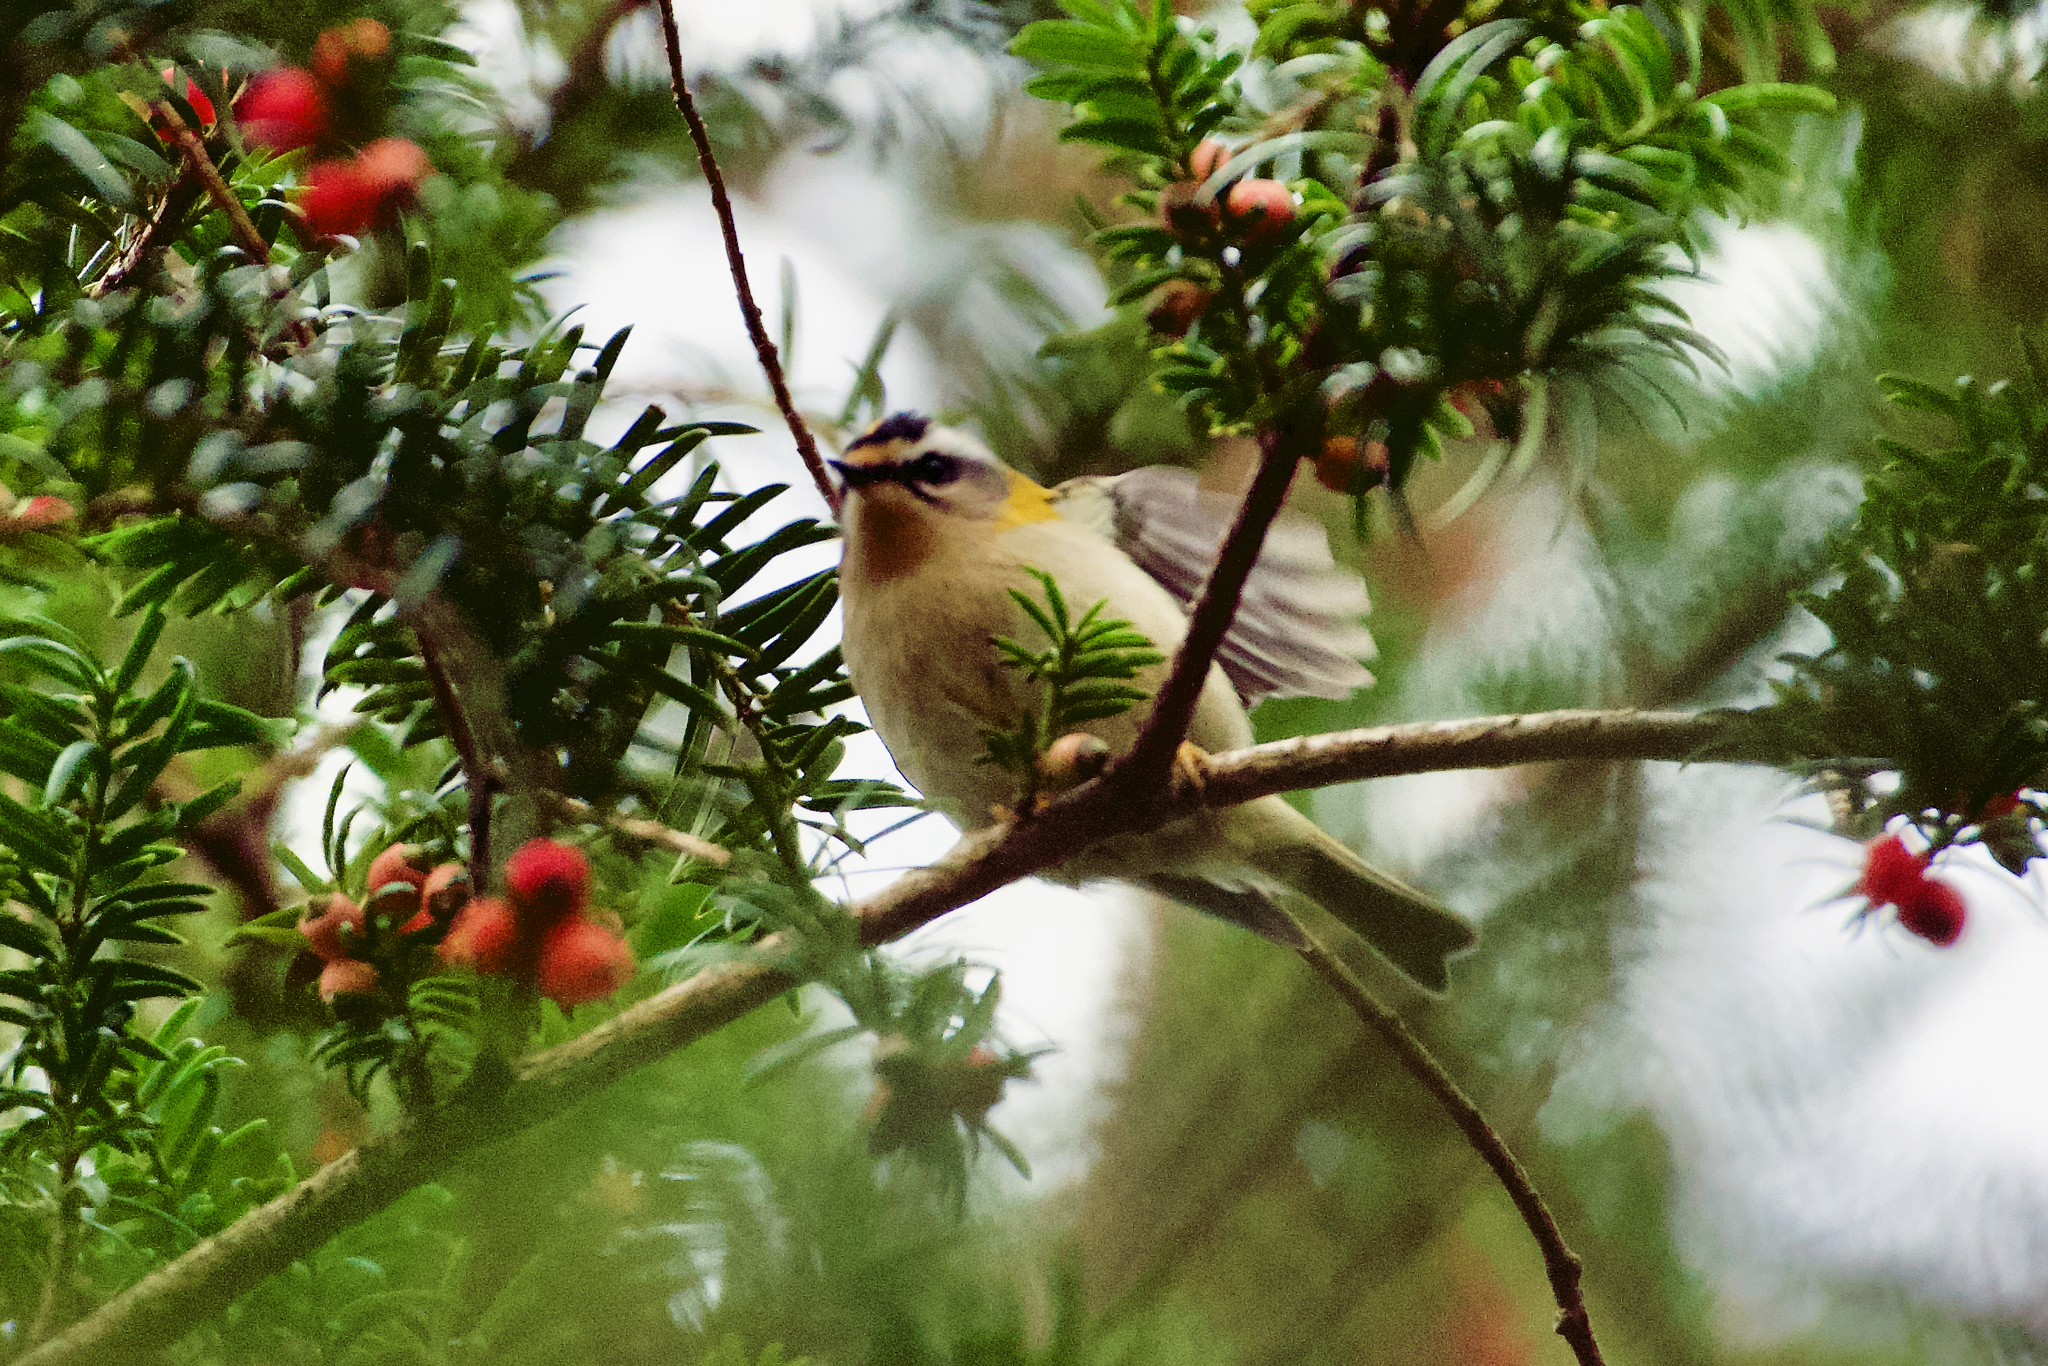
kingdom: Animalia
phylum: Chordata
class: Aves
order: Passeriformes
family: Regulidae
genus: Regulus
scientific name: Regulus ignicapilla
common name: Firecrest
